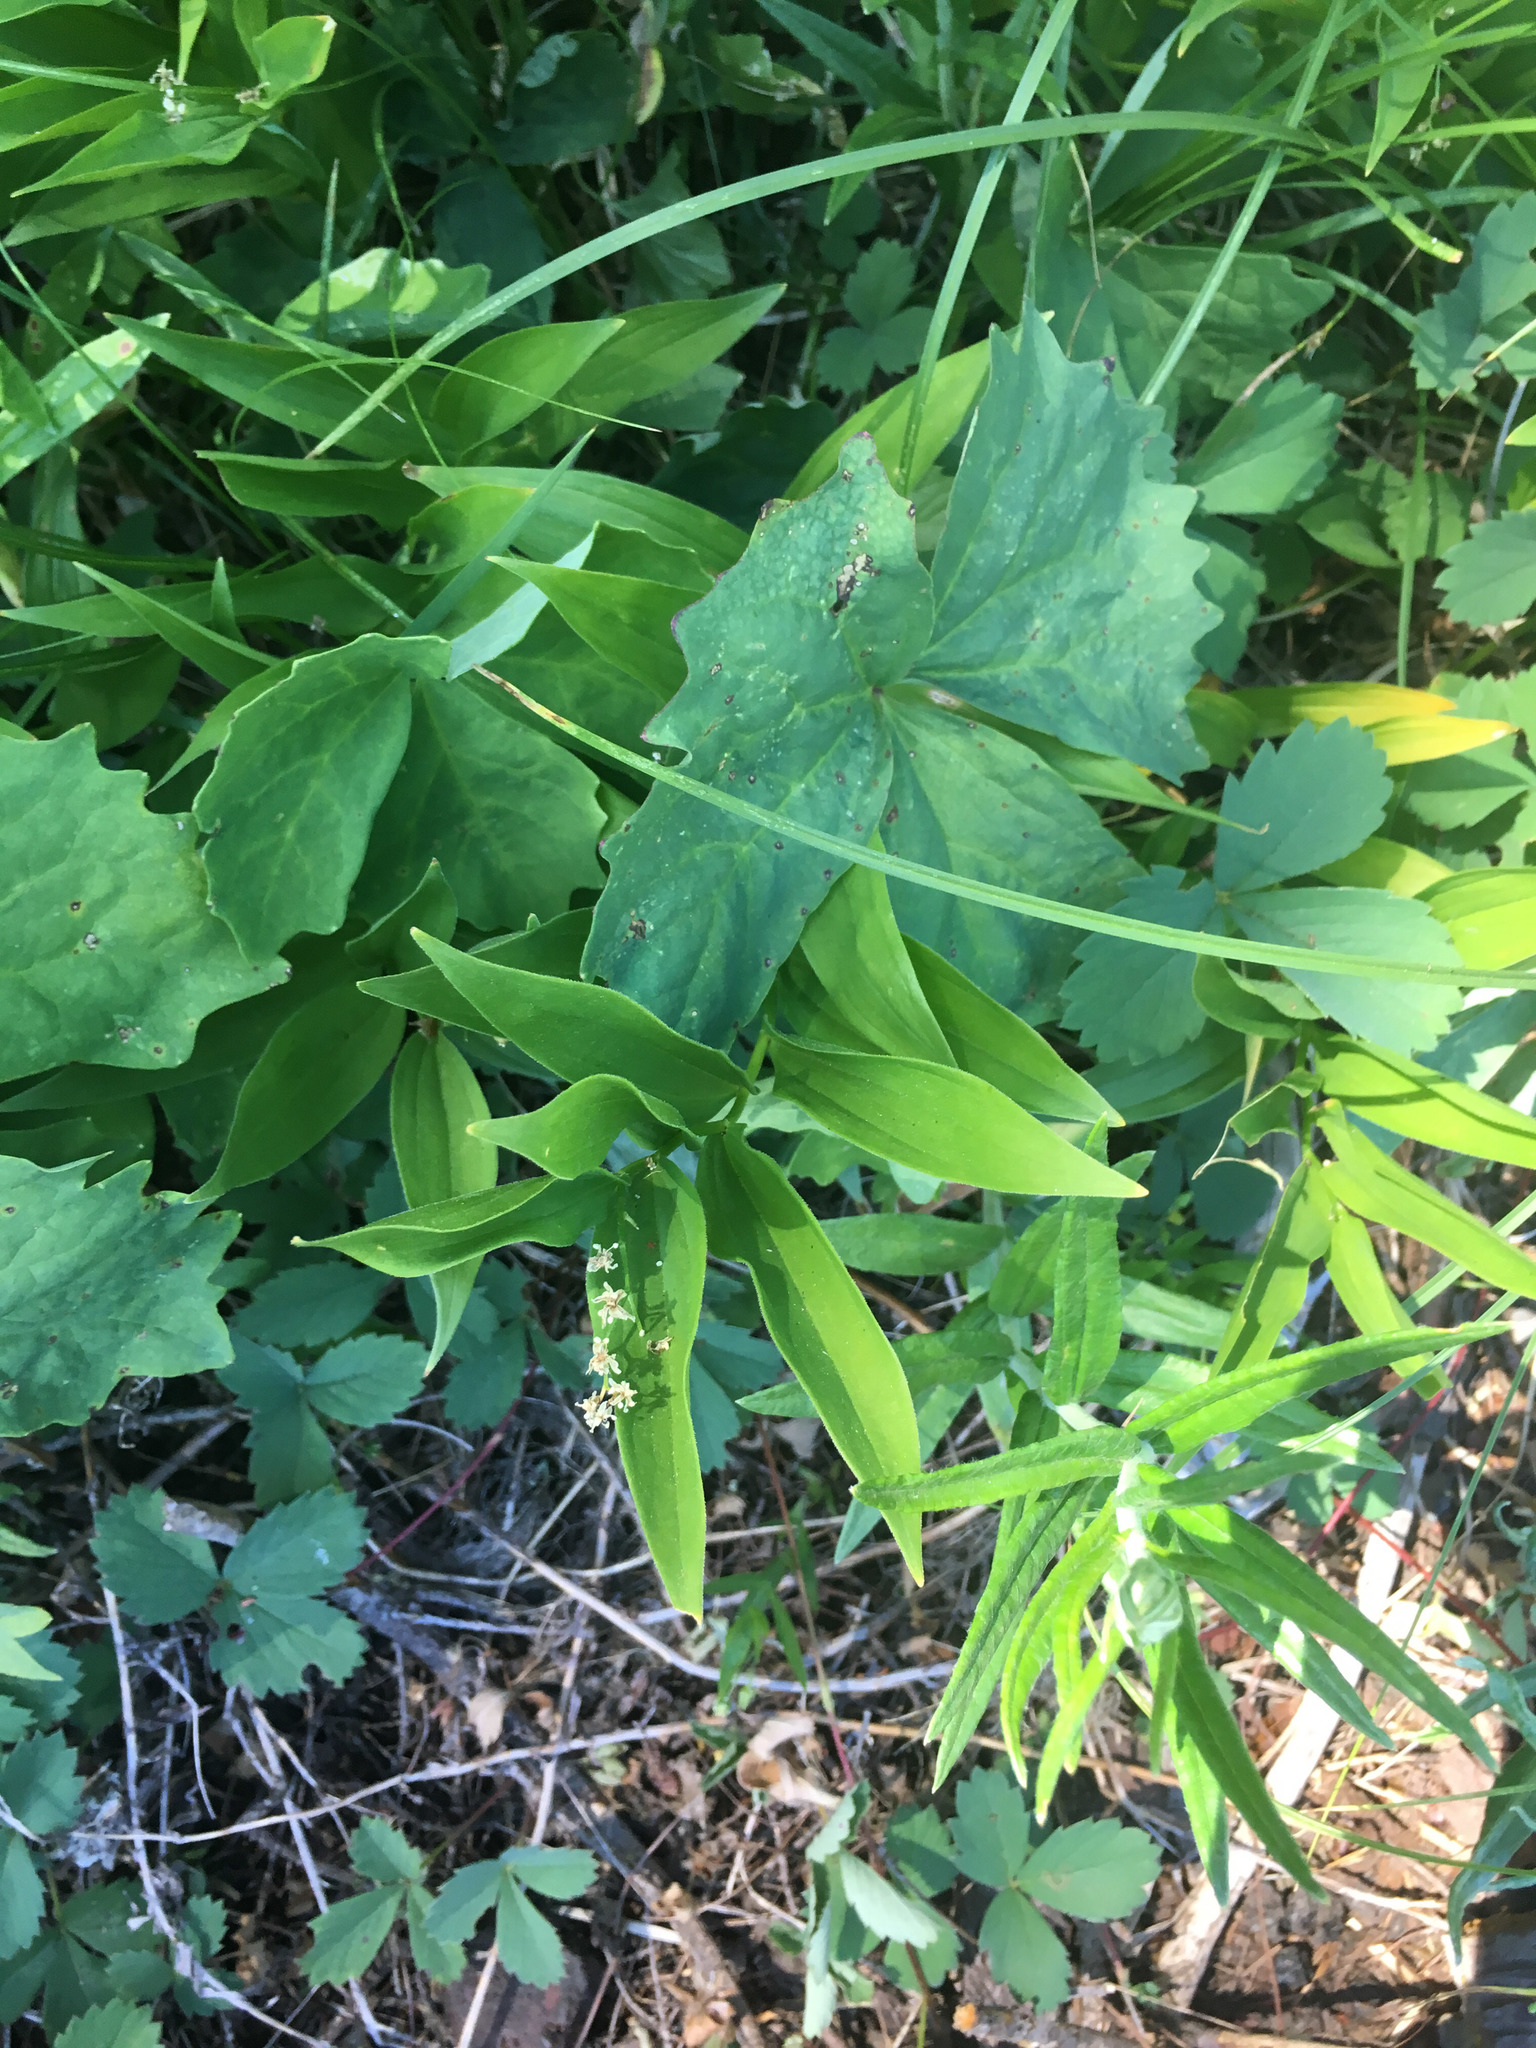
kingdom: Plantae
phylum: Tracheophyta
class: Liliopsida
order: Asparagales
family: Asparagaceae
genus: Maianthemum
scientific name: Maianthemum stellatum
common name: Little false solomon's seal
